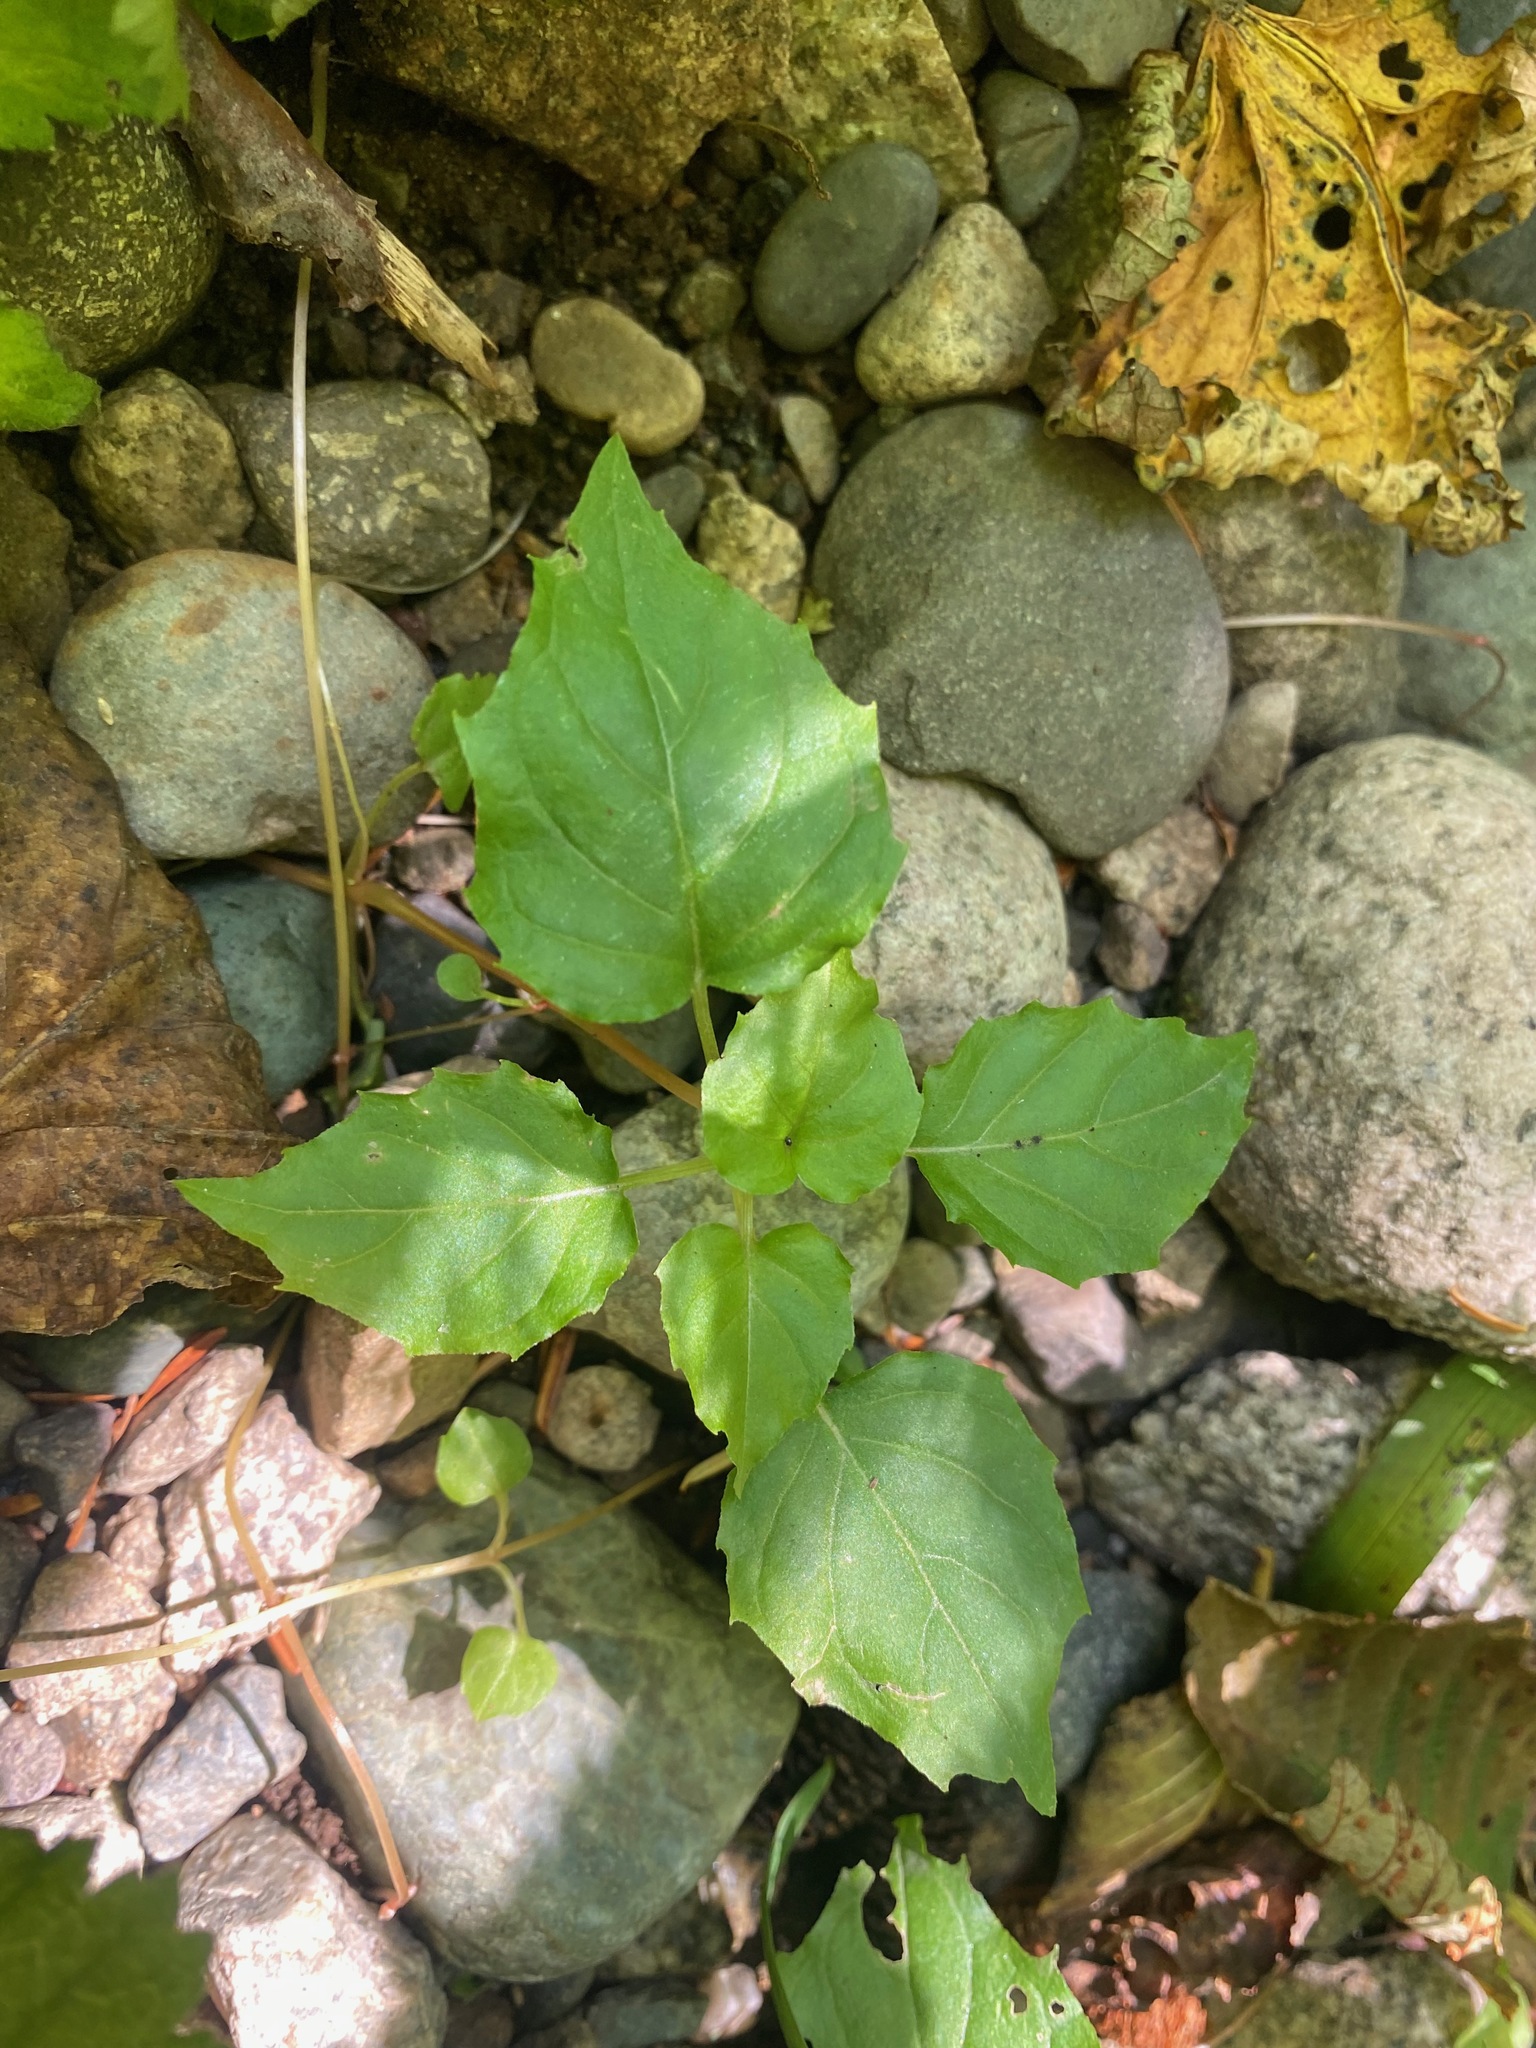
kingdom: Plantae
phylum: Tracheophyta
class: Magnoliopsida
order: Myrtales
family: Onagraceae
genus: Circaea
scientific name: Circaea alpina
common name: Alpine enchanter's-nightshade
